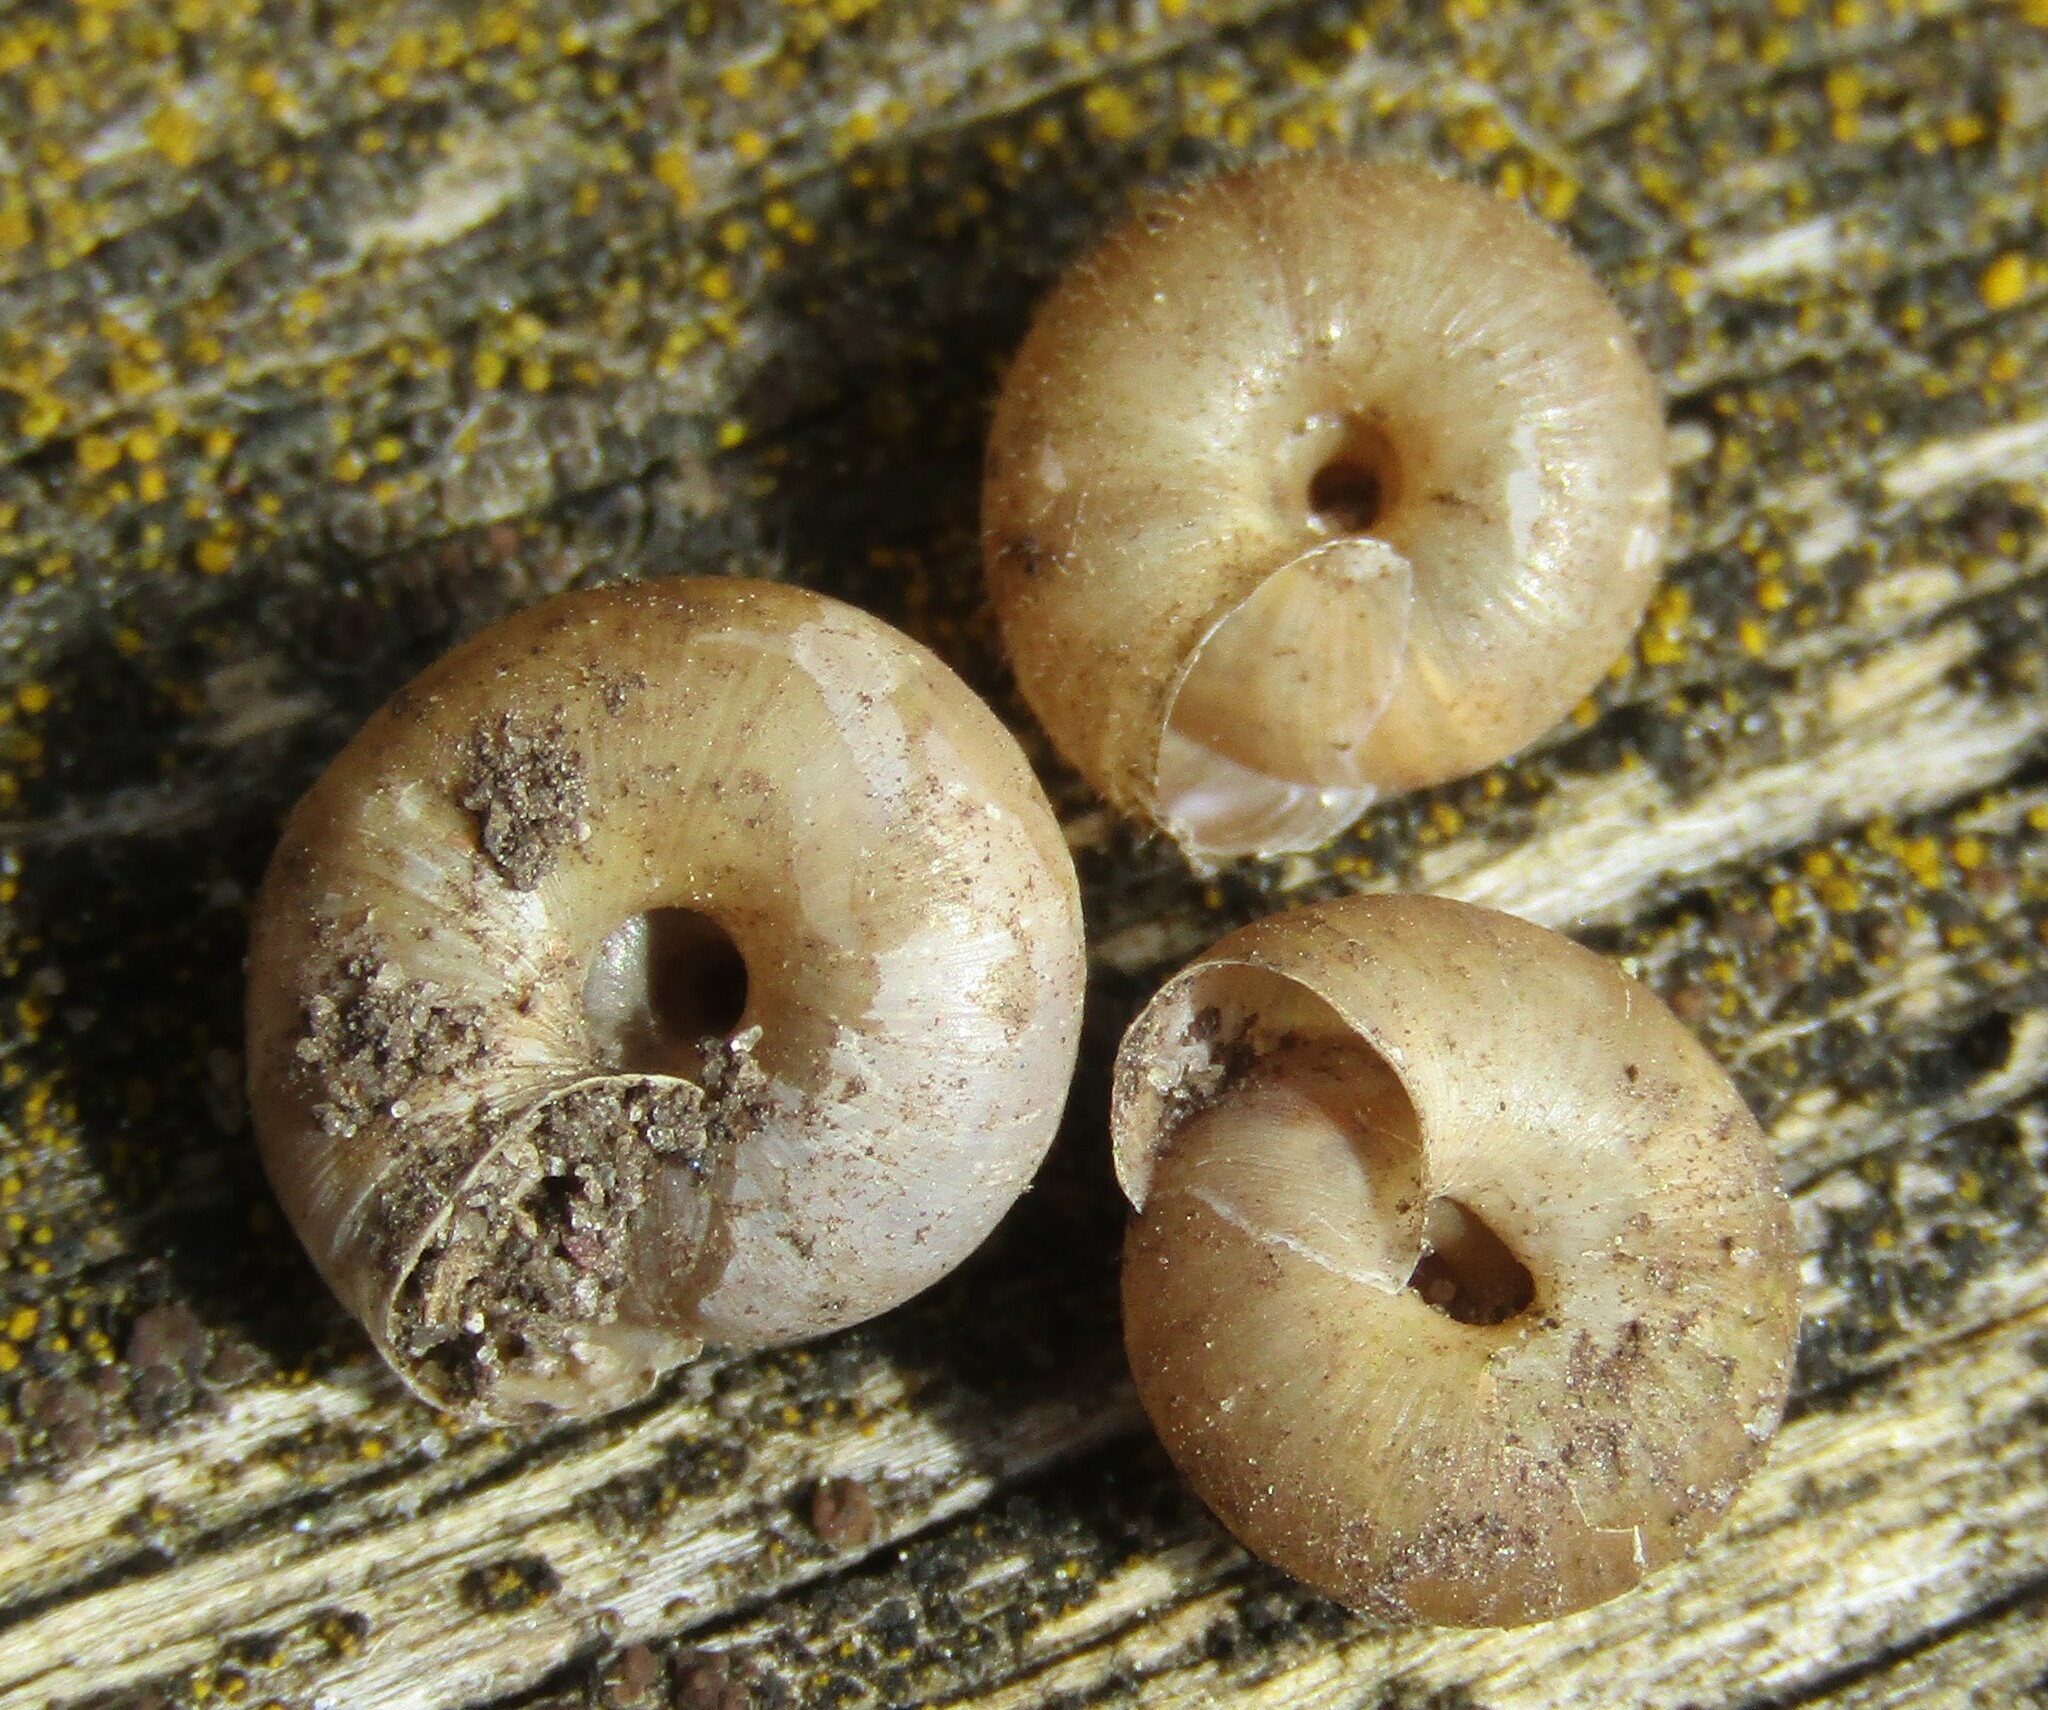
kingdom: Animalia
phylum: Mollusca
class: Gastropoda
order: Stylommatophora
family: Hygromiidae
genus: Trochulus
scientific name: Trochulus hispidus
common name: Hairy snail
